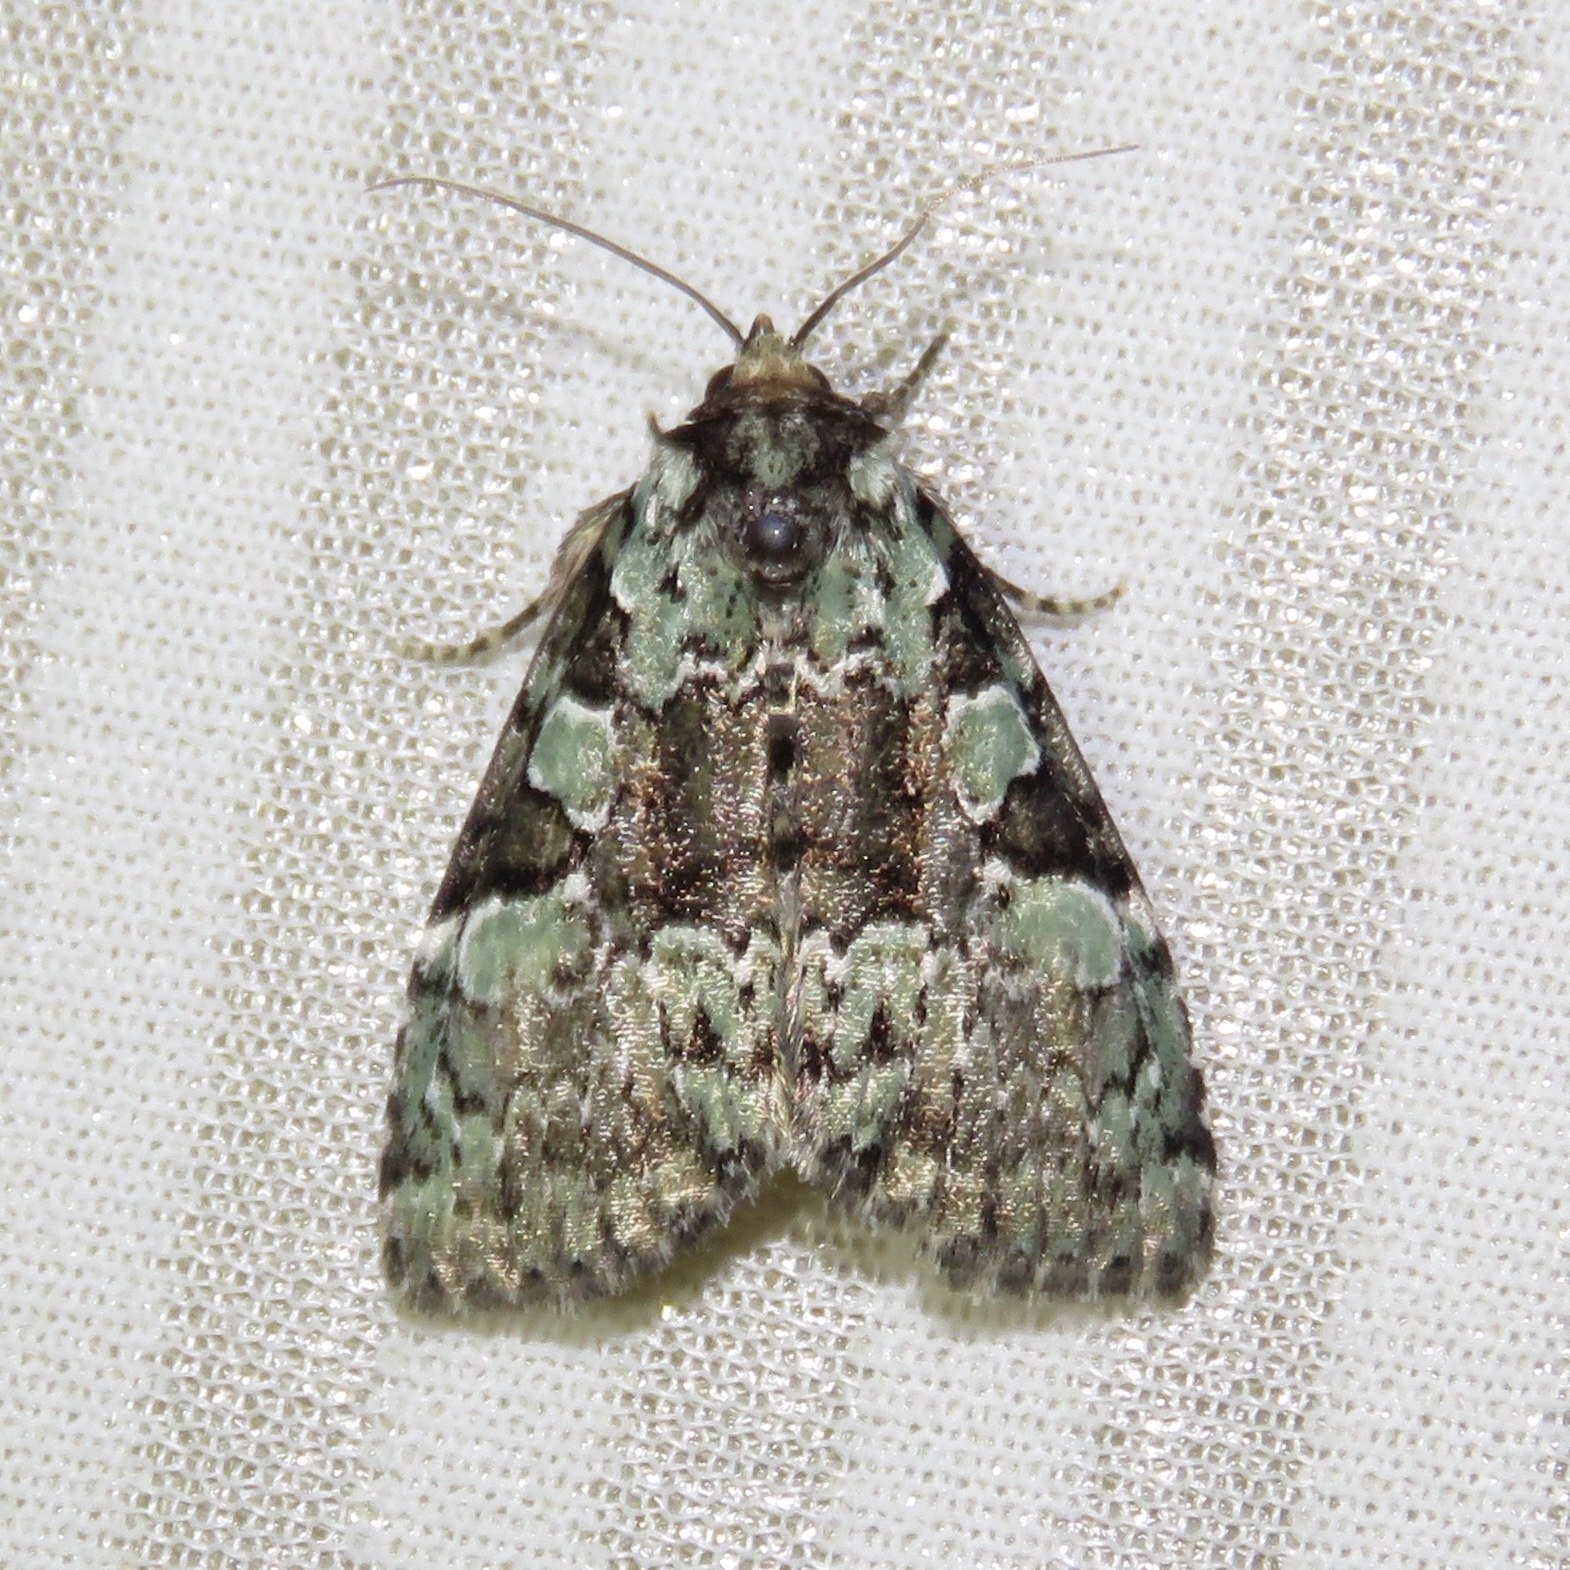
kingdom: Animalia
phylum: Arthropoda
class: Insecta
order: Lepidoptera
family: Noctuidae
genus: Leuconycta
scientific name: Leuconycta lepidula
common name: Marbled-green leuconycta moth
